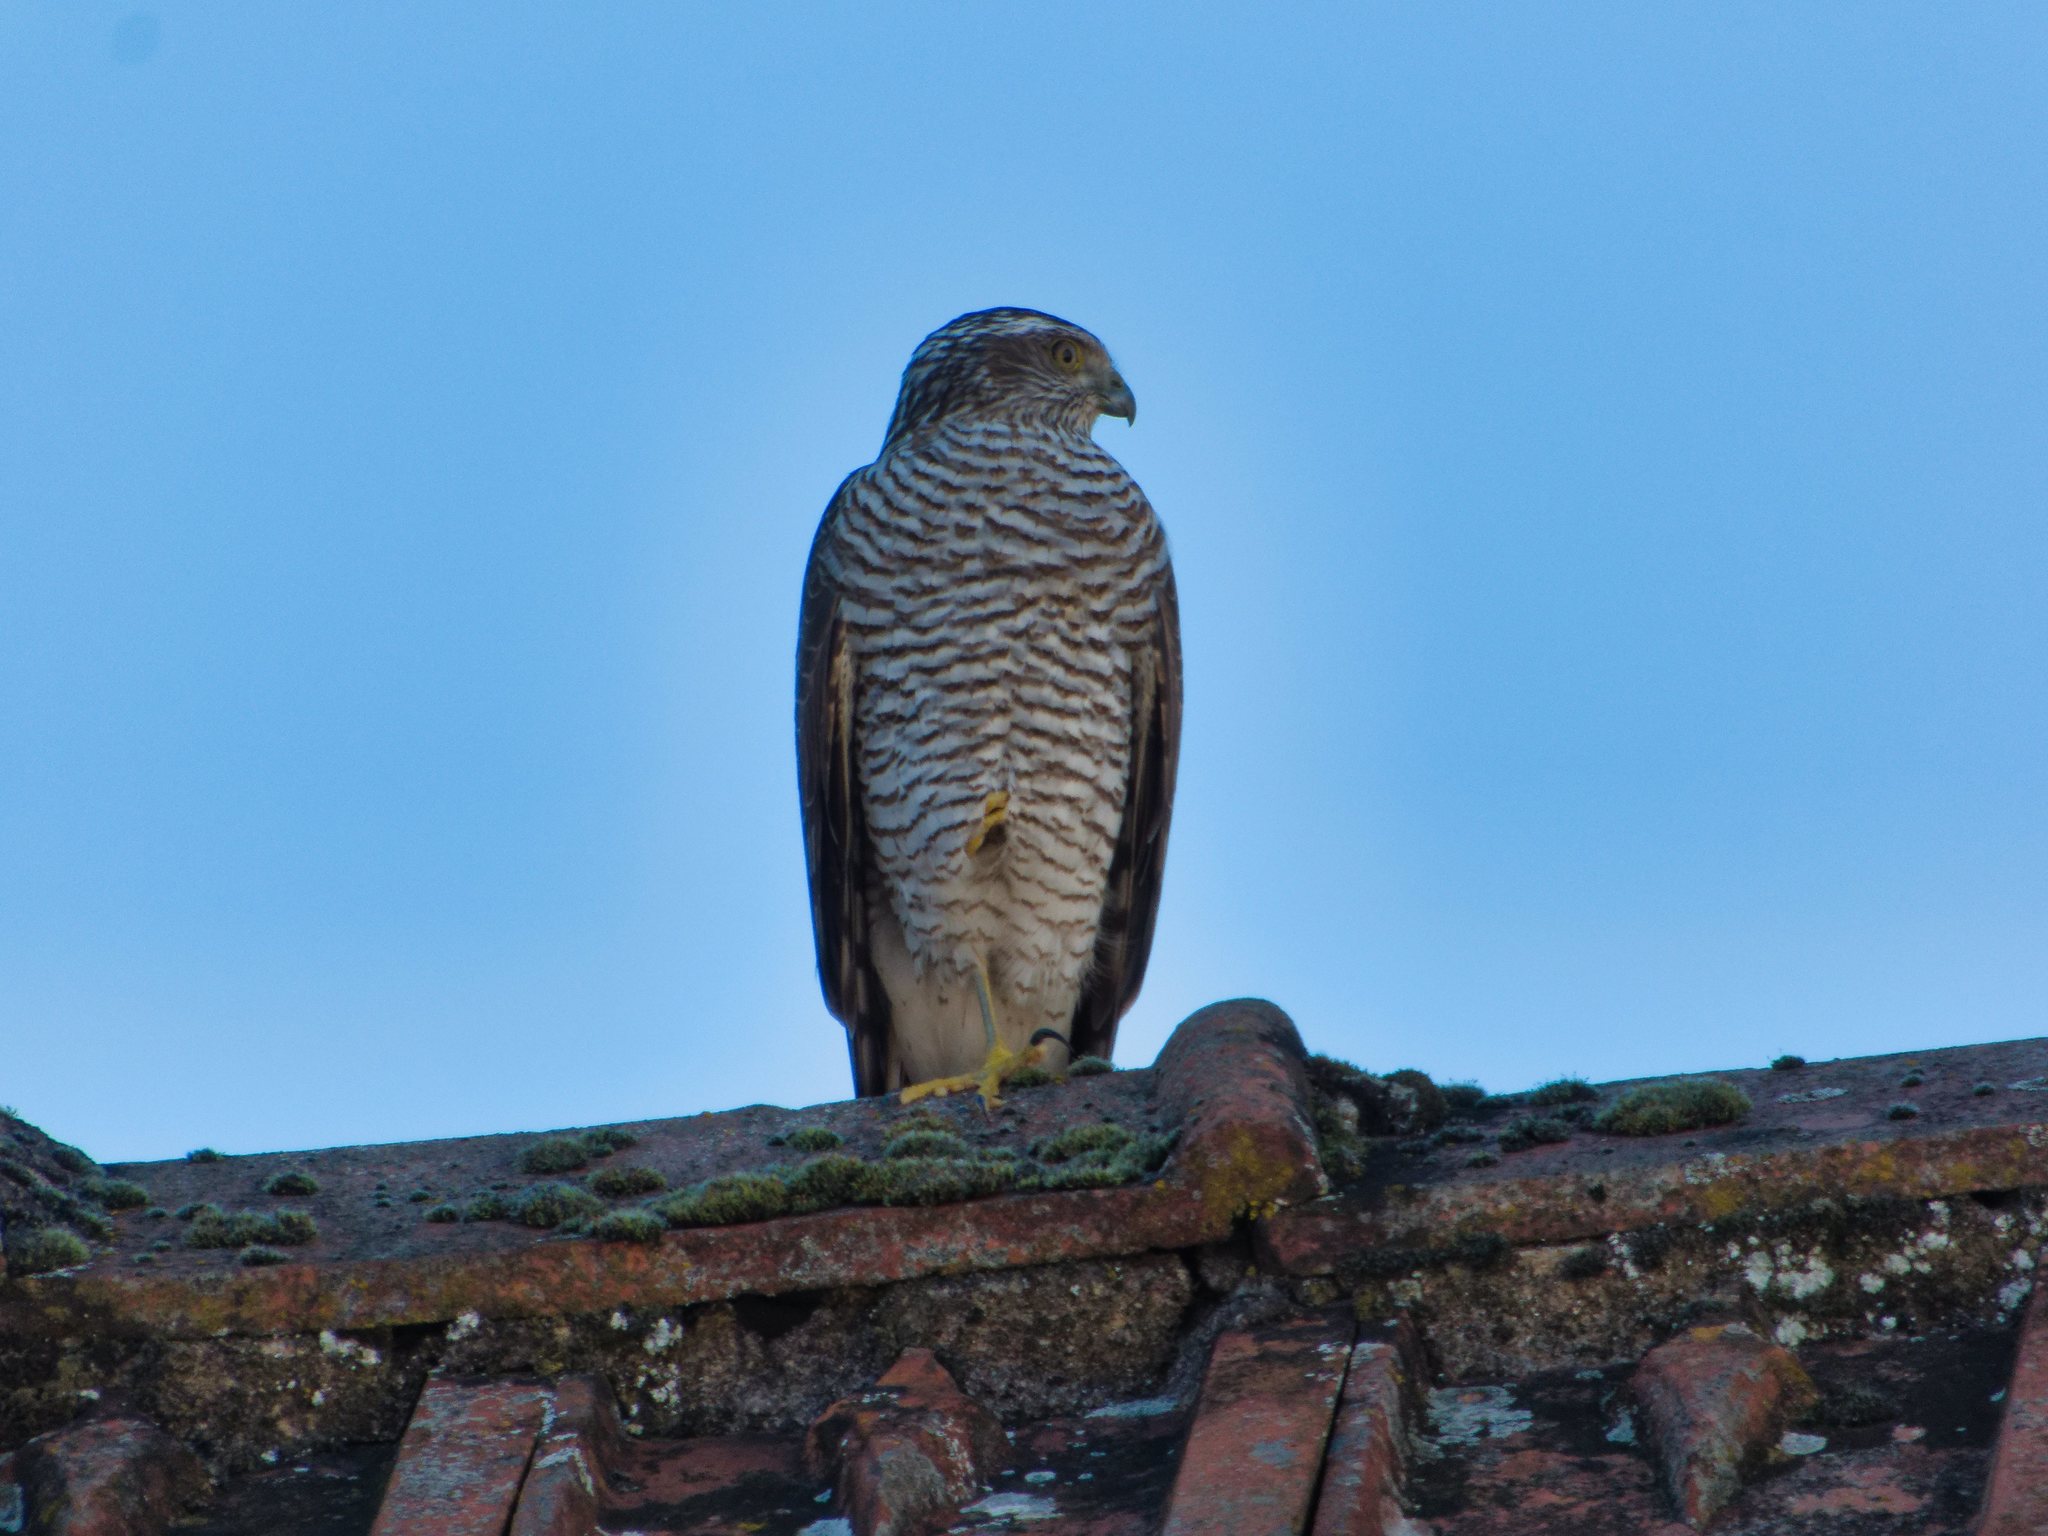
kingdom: Animalia
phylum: Chordata
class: Aves
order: Accipitriformes
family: Accipitridae
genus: Accipiter
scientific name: Accipiter nisus
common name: Eurasian sparrowhawk
